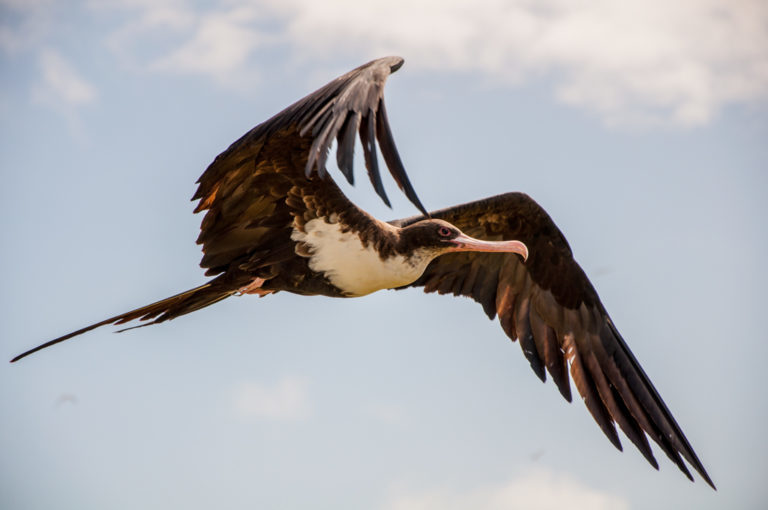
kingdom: Animalia
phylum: Chordata
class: Aves
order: Suliformes
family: Fregatidae
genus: Fregata
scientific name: Fregata minor
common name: Great frigatebird
